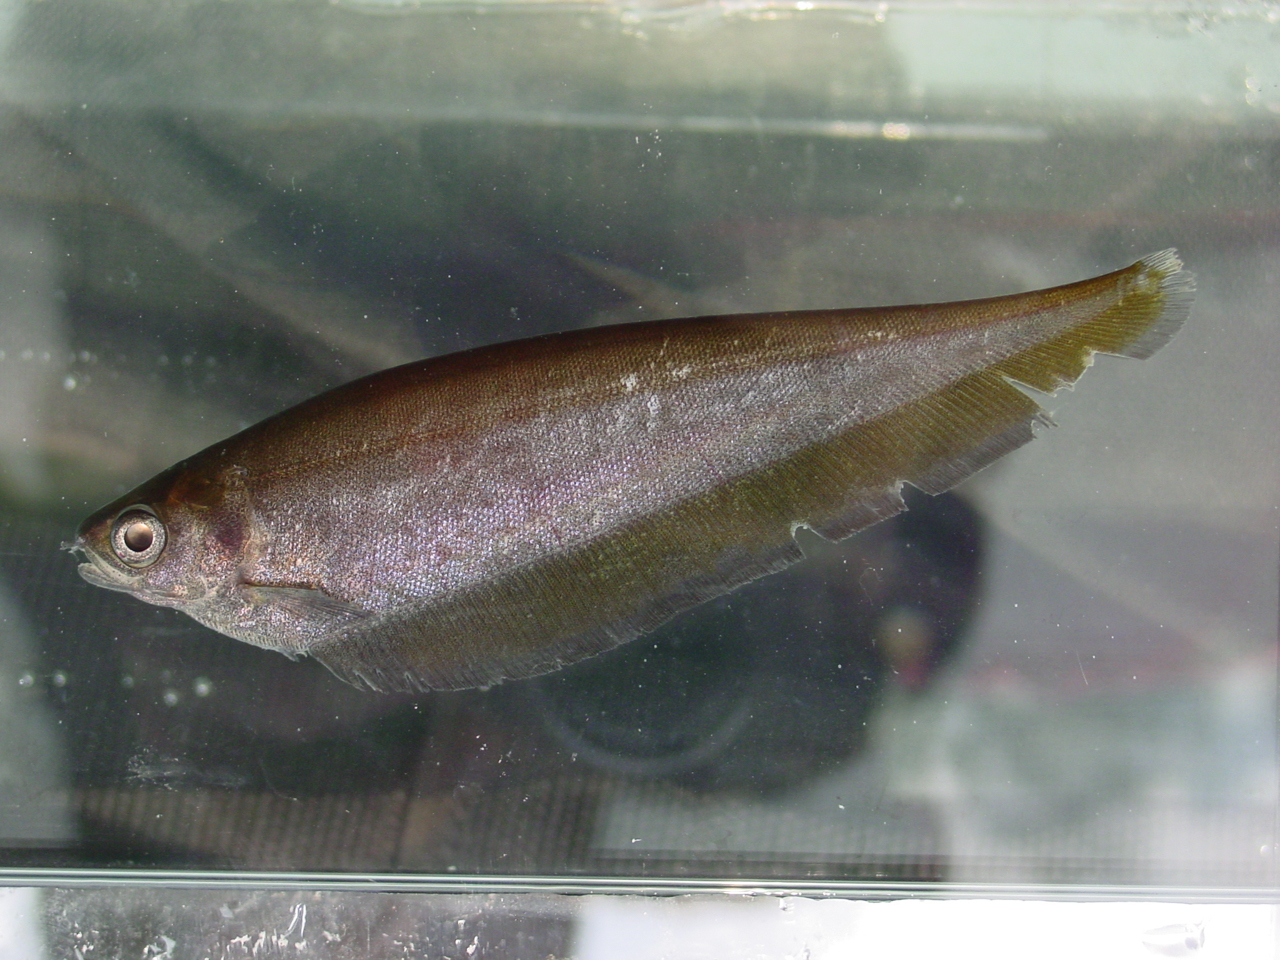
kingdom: Animalia
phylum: Chordata
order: Osteoglossiformes
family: Notopteridae
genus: Xenomystus
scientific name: Xenomystus nigri
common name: African knifefish
